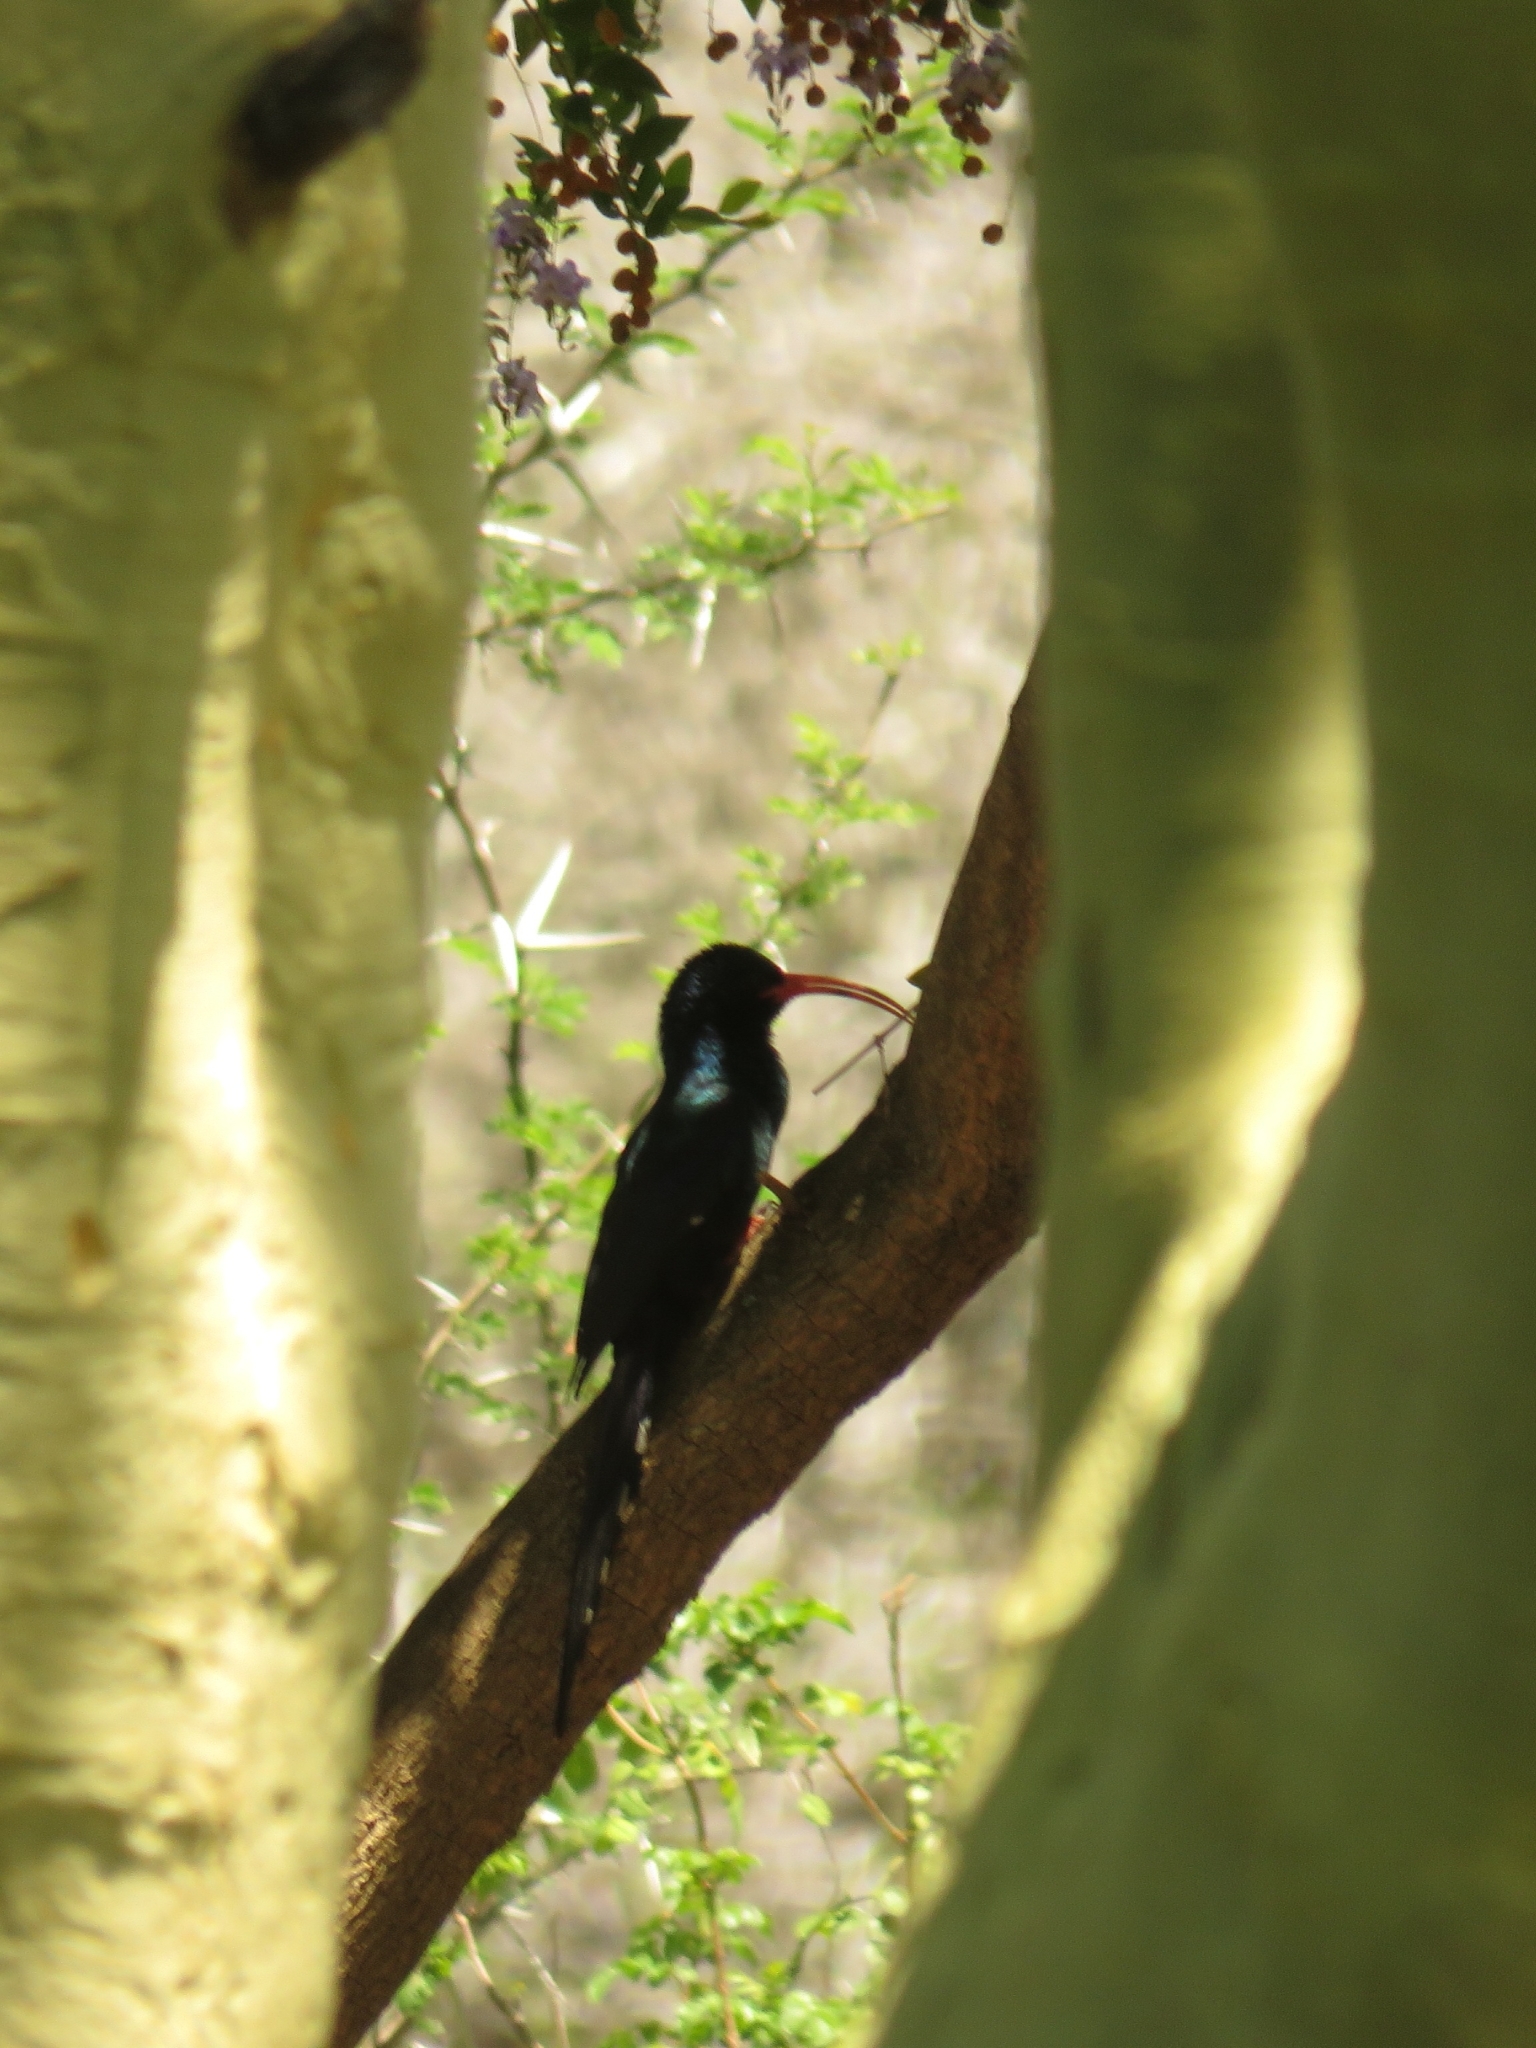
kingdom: Animalia
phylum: Chordata
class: Aves
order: Bucerotiformes
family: Phoeniculidae
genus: Phoeniculus
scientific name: Phoeniculus purpureus
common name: Green woodhoopoe
